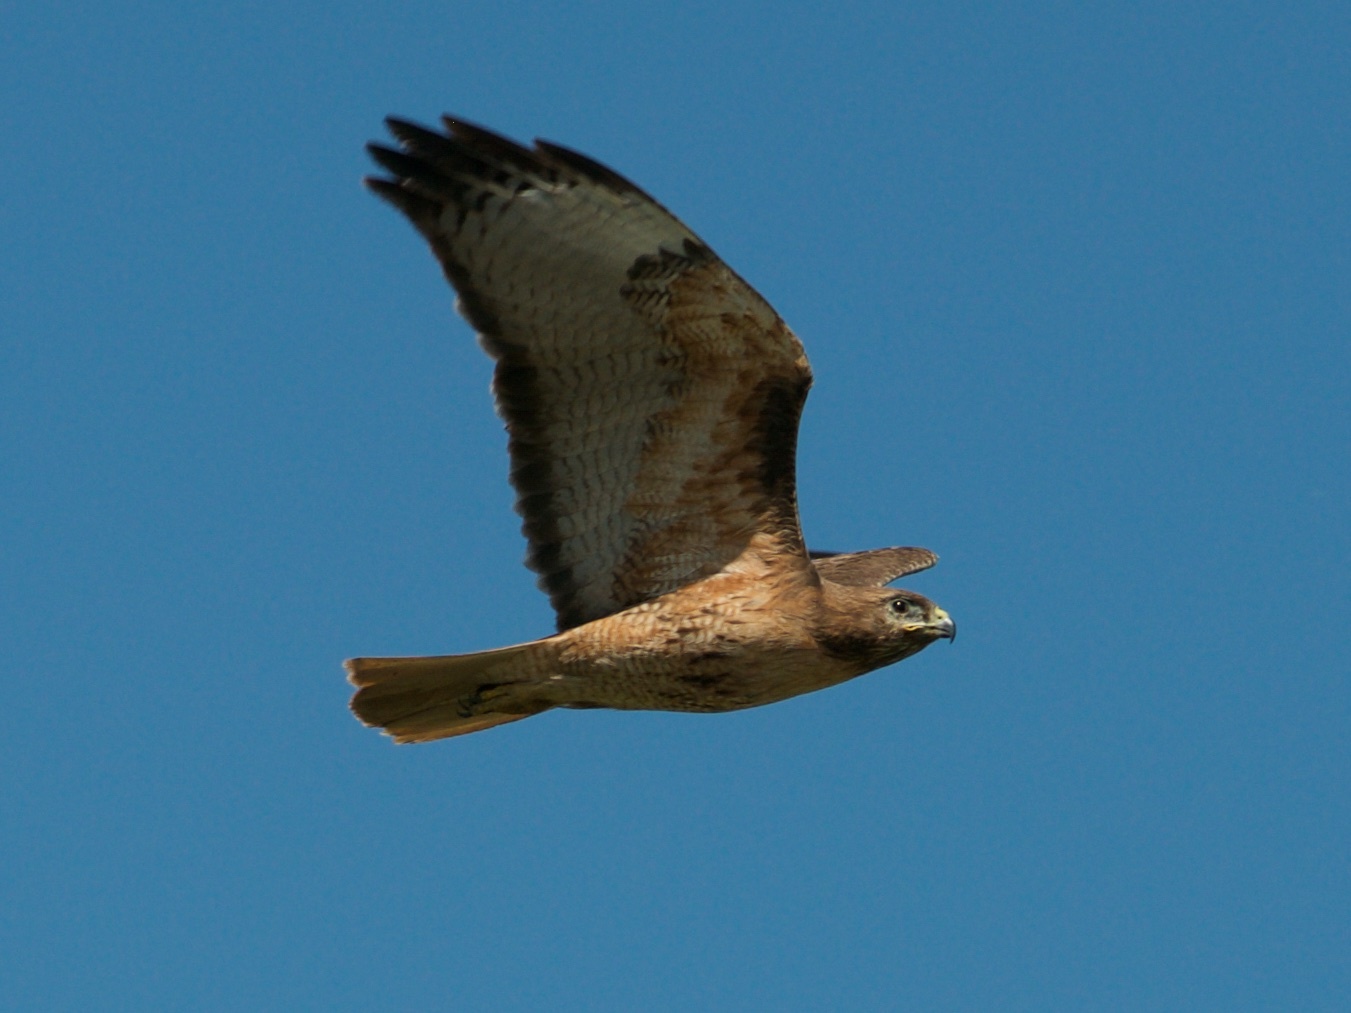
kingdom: Animalia
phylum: Chordata
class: Aves
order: Accipitriformes
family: Accipitridae
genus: Buteo
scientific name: Buteo jamaicensis
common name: Red-tailed hawk
